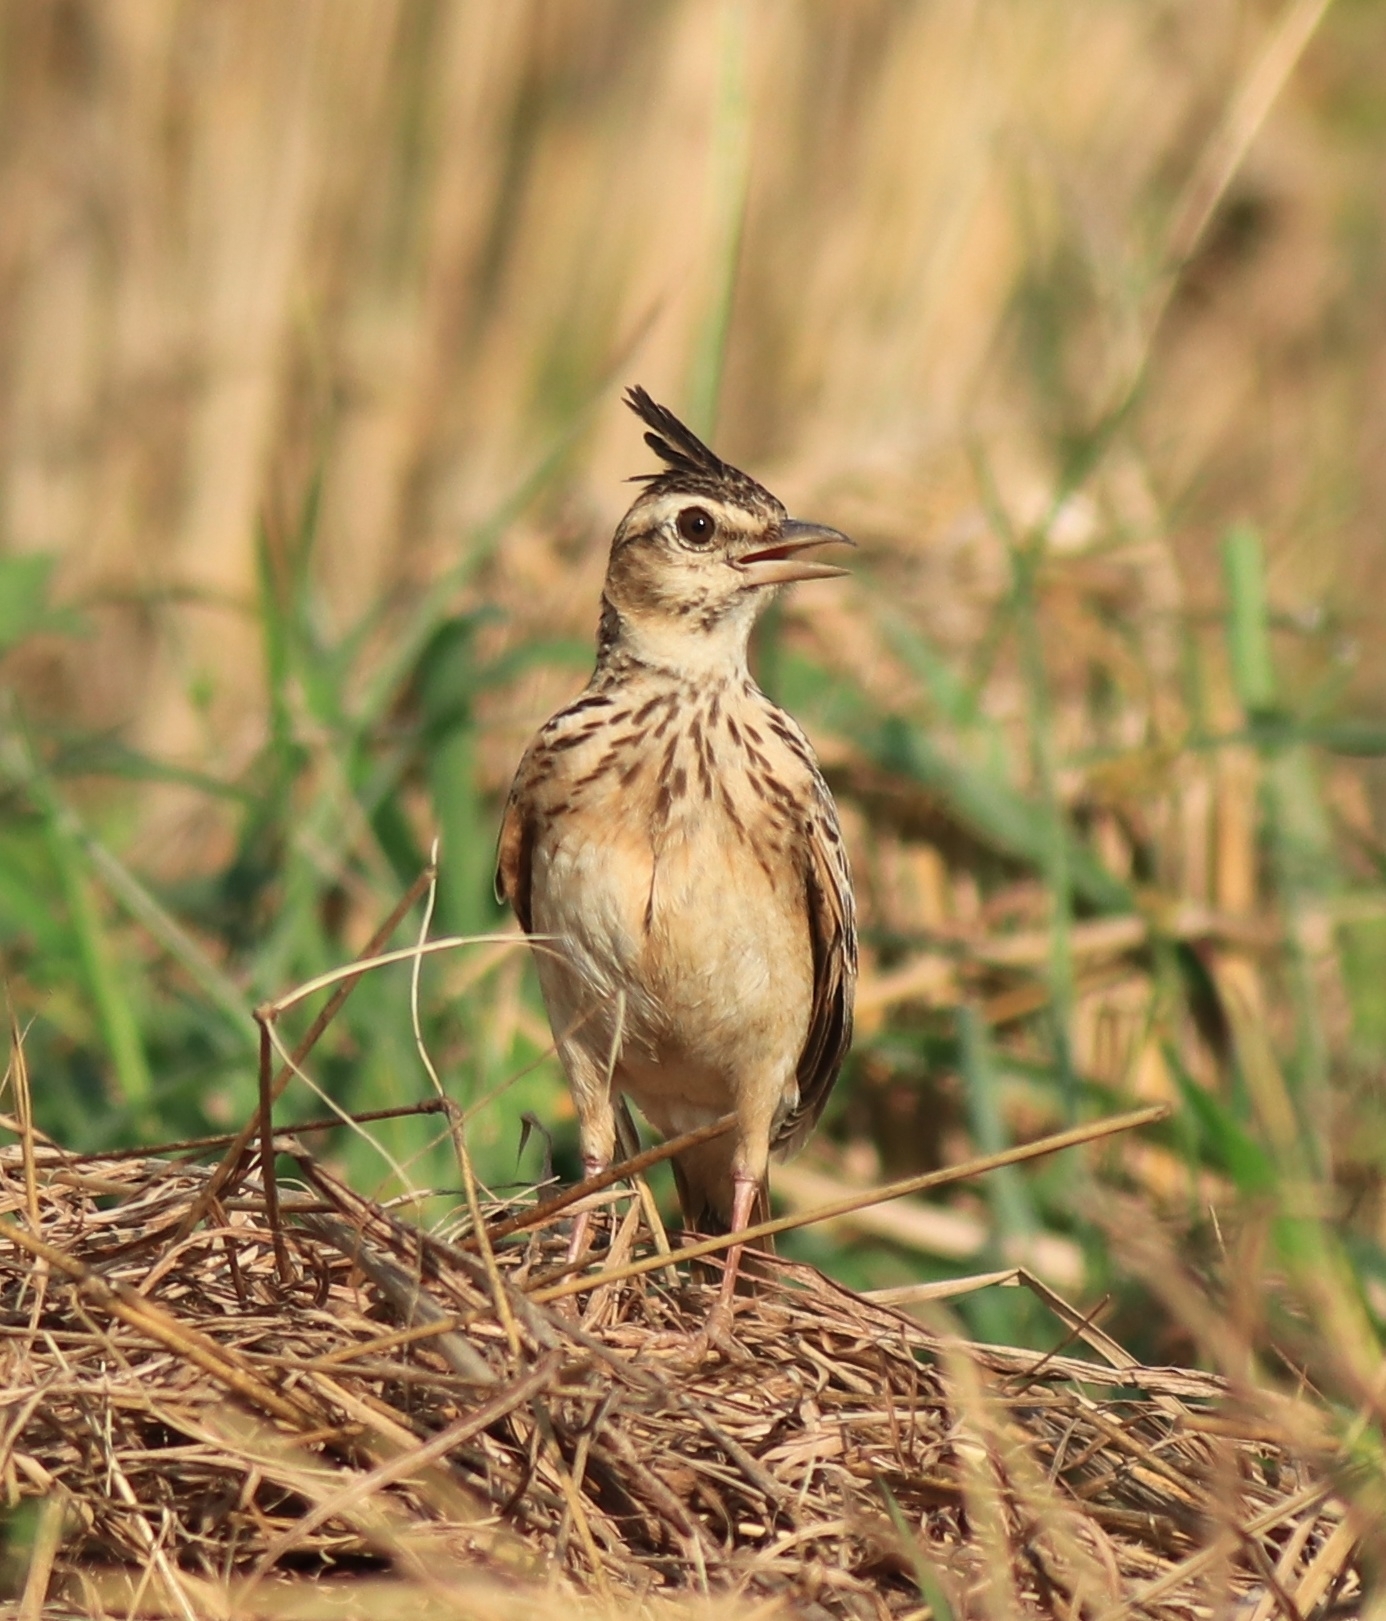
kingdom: Animalia
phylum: Chordata
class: Aves
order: Passeriformes
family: Alaudidae
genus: Galerida
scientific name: Galerida malabarica
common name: Malabar lark
